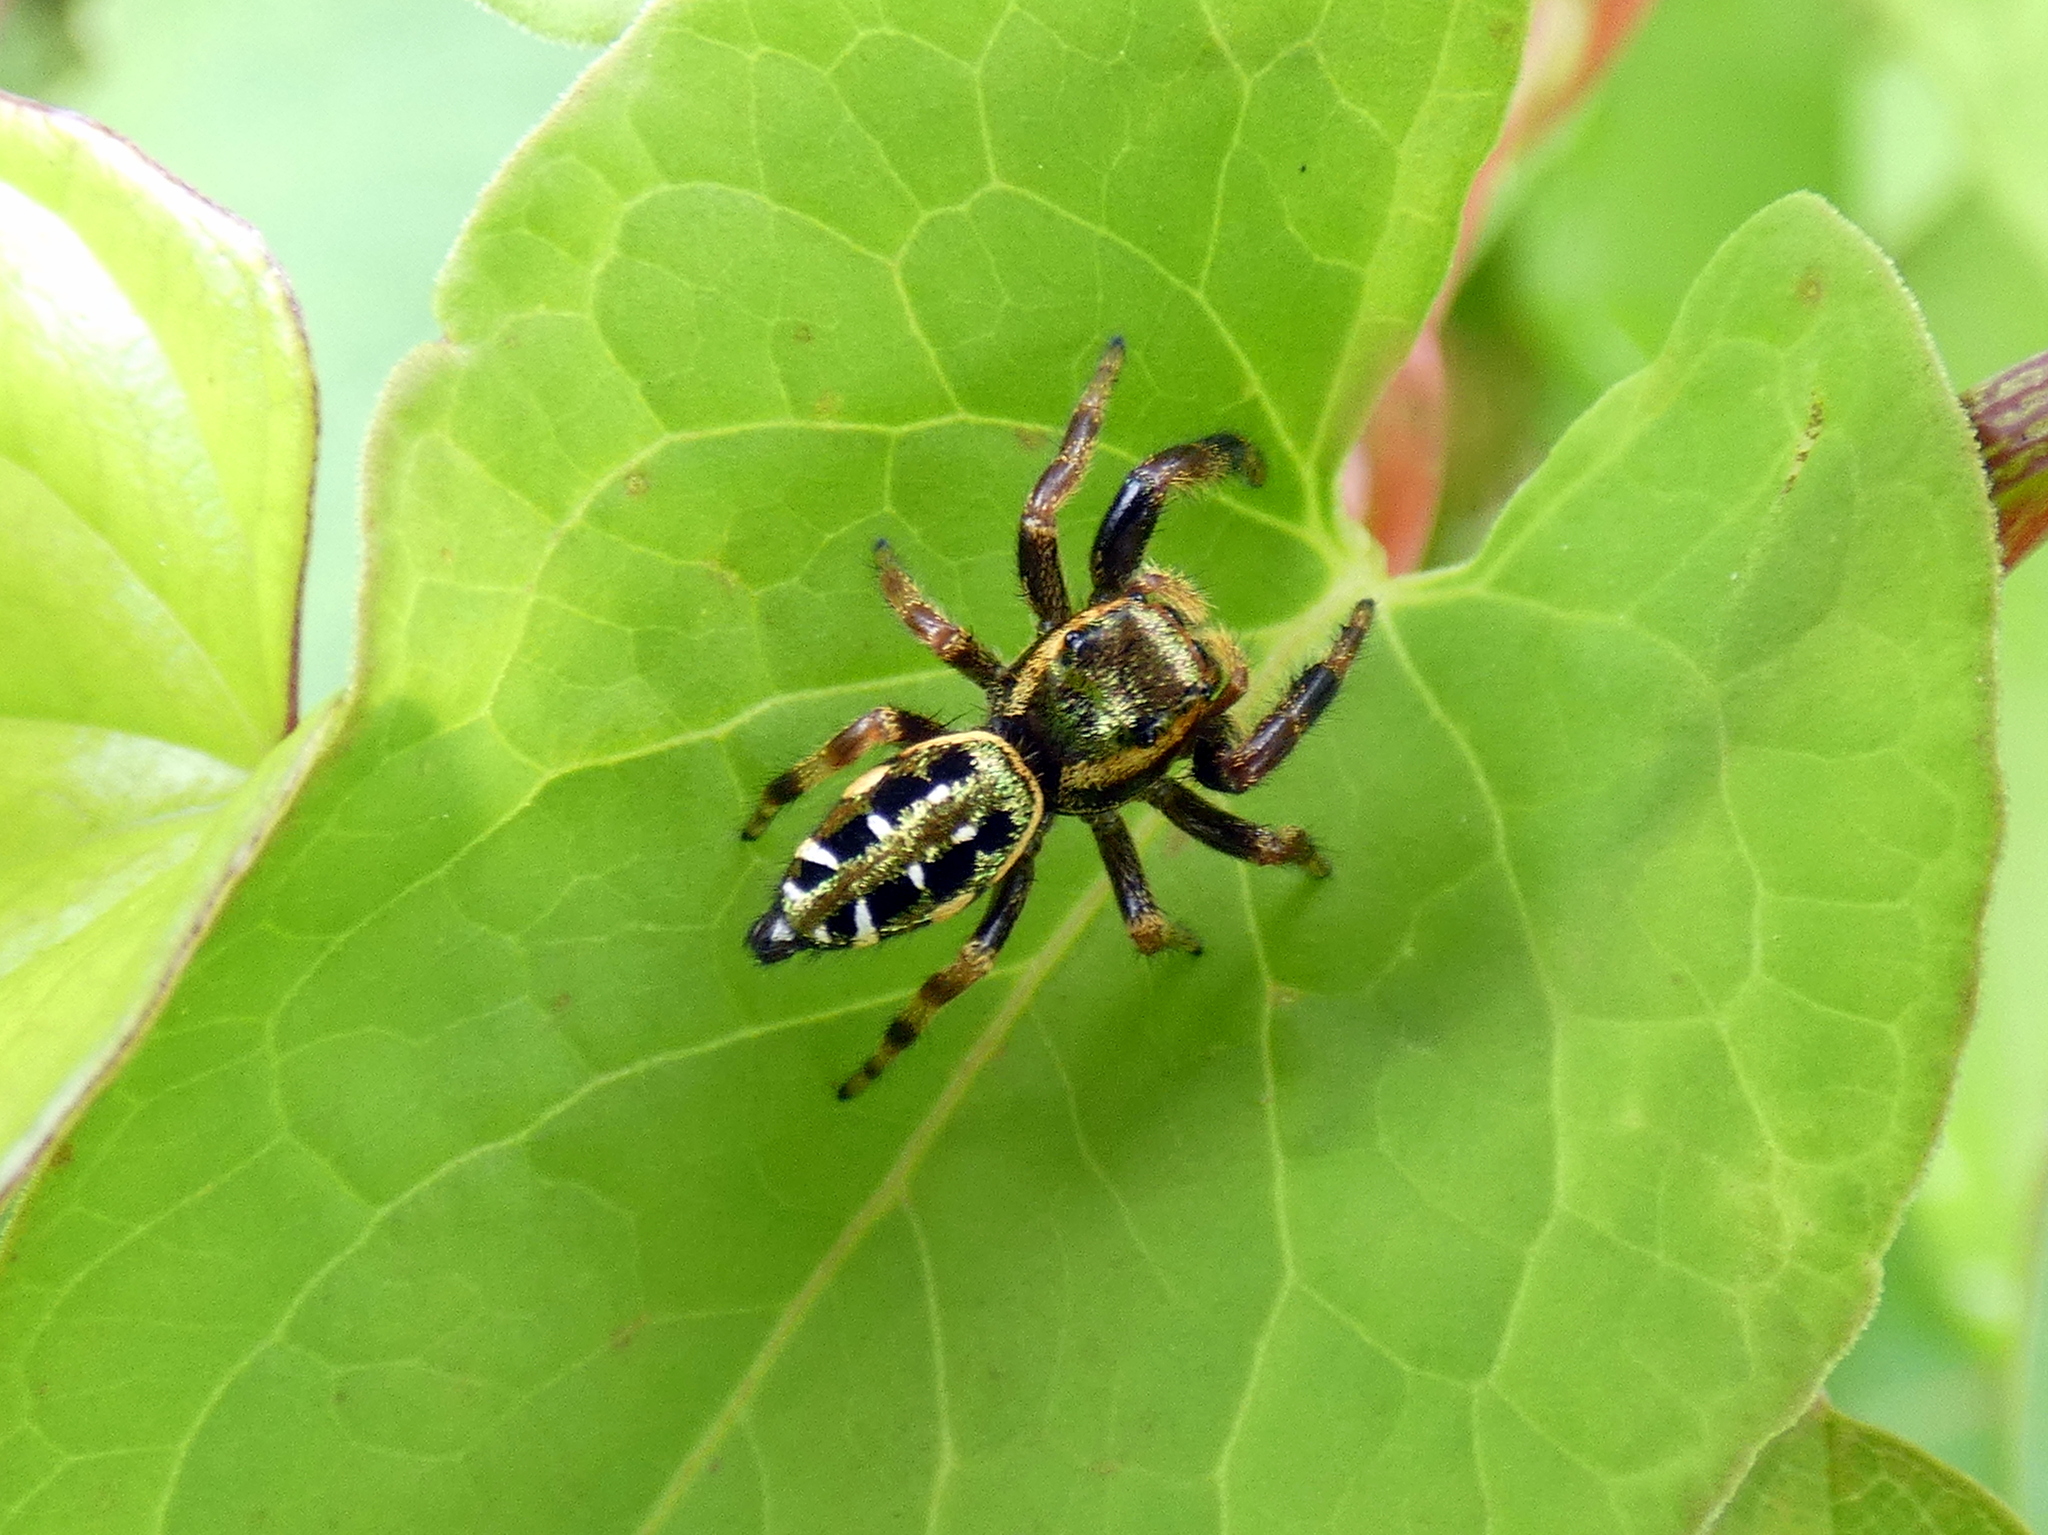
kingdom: Animalia
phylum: Arthropoda
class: Arachnida
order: Araneae
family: Salticidae
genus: Paraphidippus
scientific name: Paraphidippus aurantius
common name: Jumping spiders
